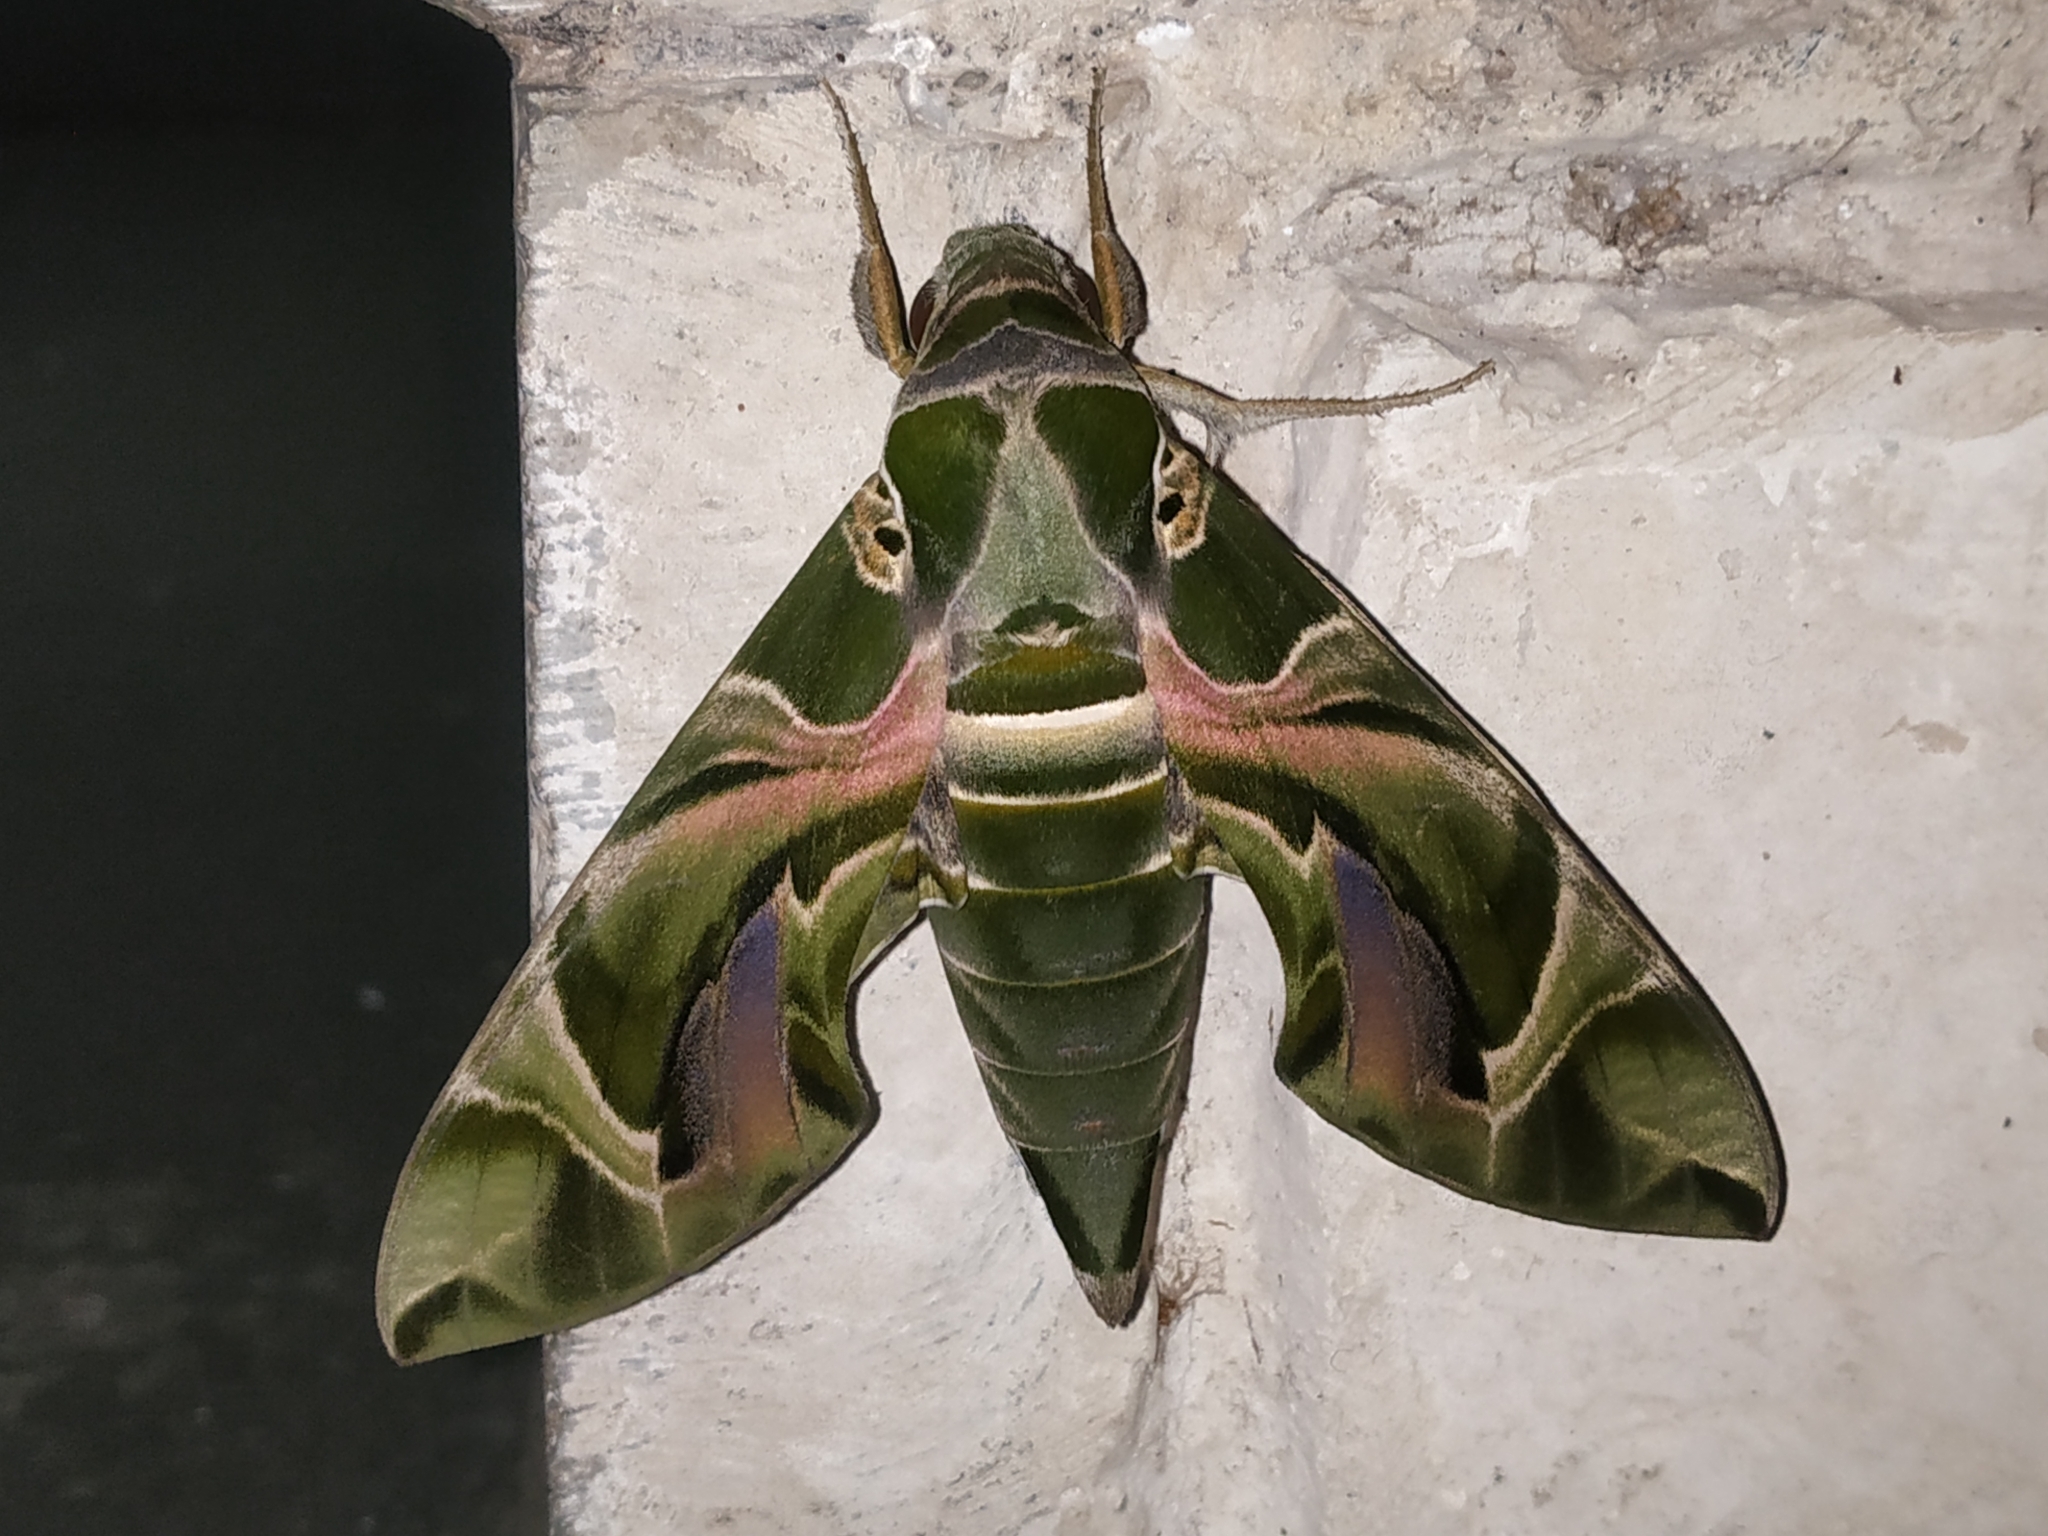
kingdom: Animalia
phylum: Arthropoda
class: Insecta
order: Lepidoptera
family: Sphingidae
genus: Daphnis
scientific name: Daphnis nerii
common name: Oleander hawk-moth
